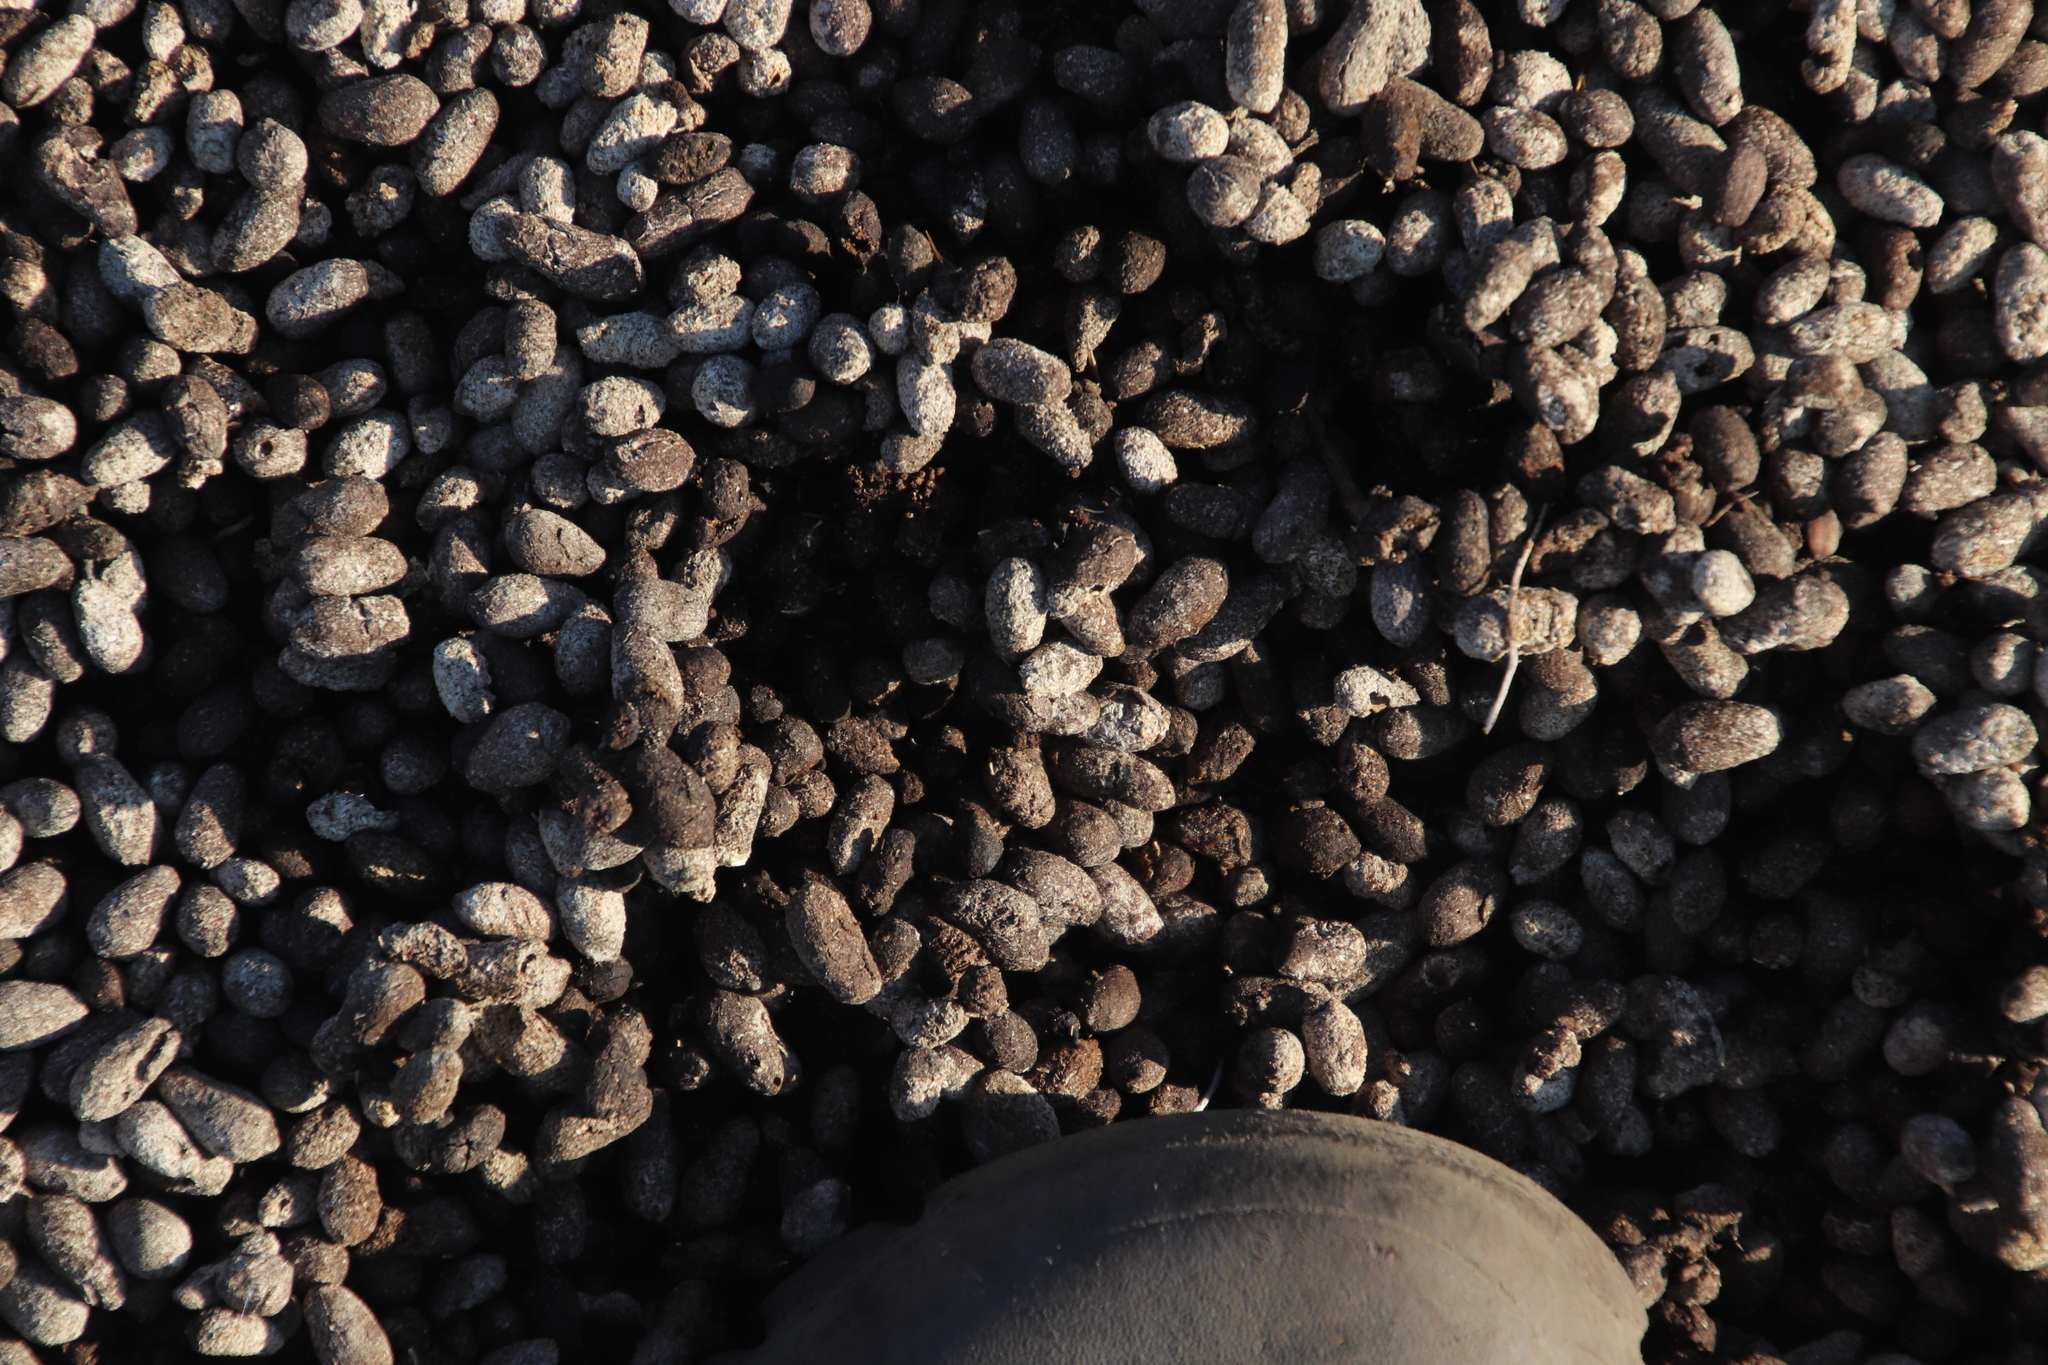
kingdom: Animalia
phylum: Chordata
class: Mammalia
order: Artiodactyla
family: Bovidae
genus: Oreotragus
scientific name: Oreotragus oreotragus
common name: Klipspringer
